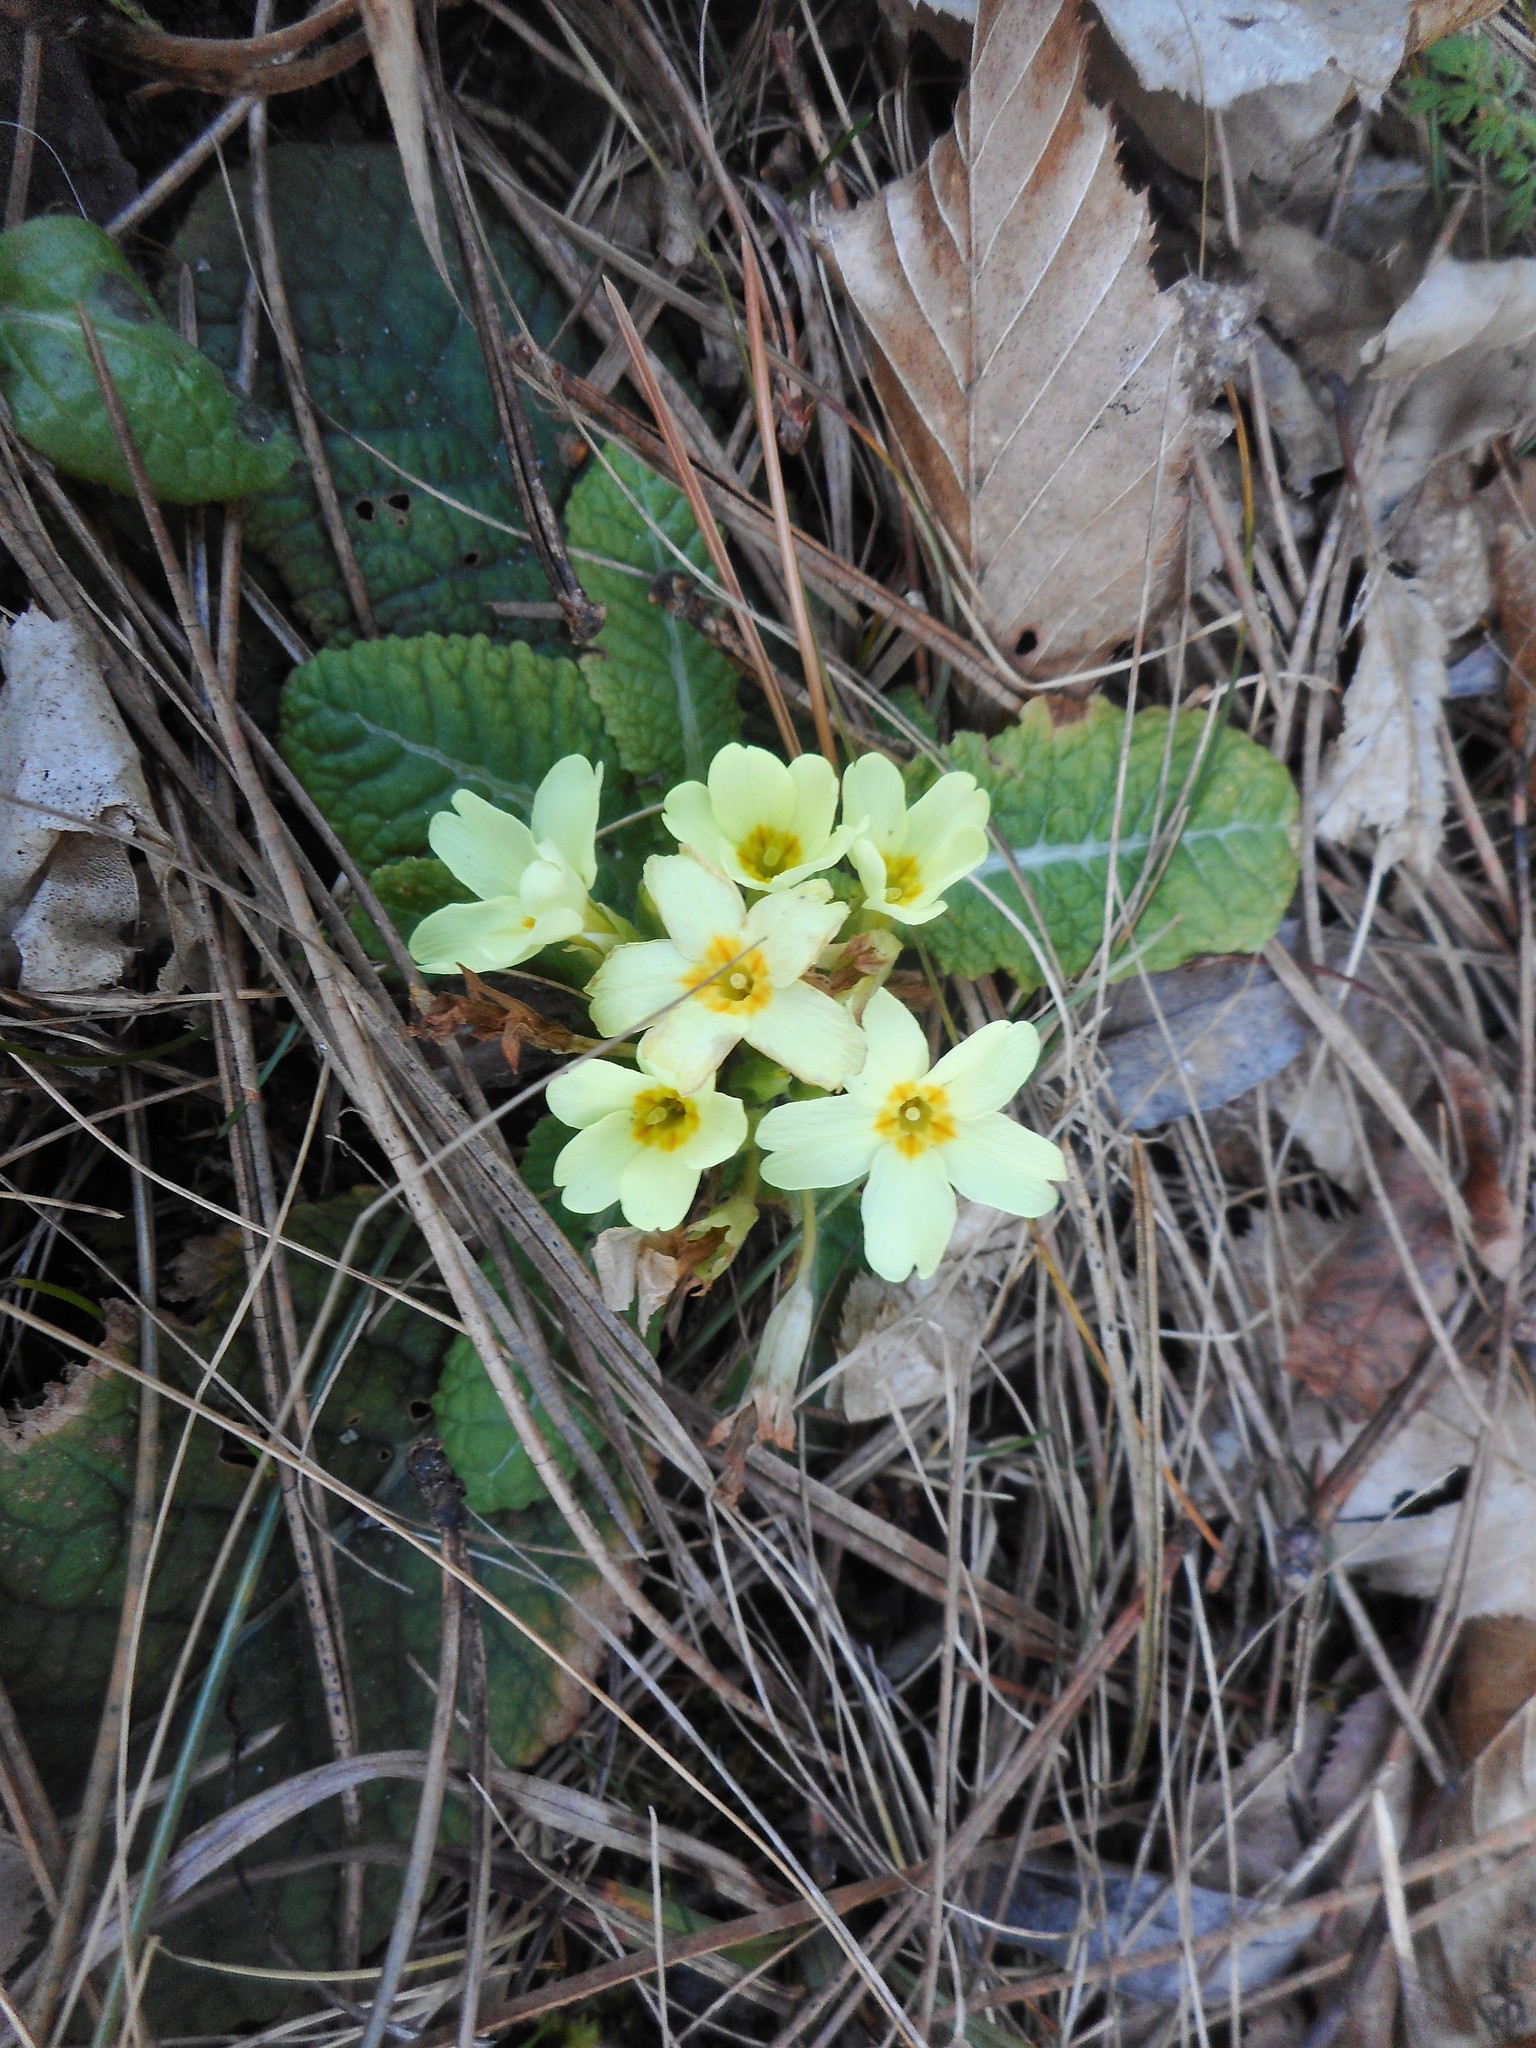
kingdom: Plantae
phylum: Tracheophyta
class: Magnoliopsida
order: Ericales
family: Primulaceae
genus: Primula
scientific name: Primula vulgaris
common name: Primrose
